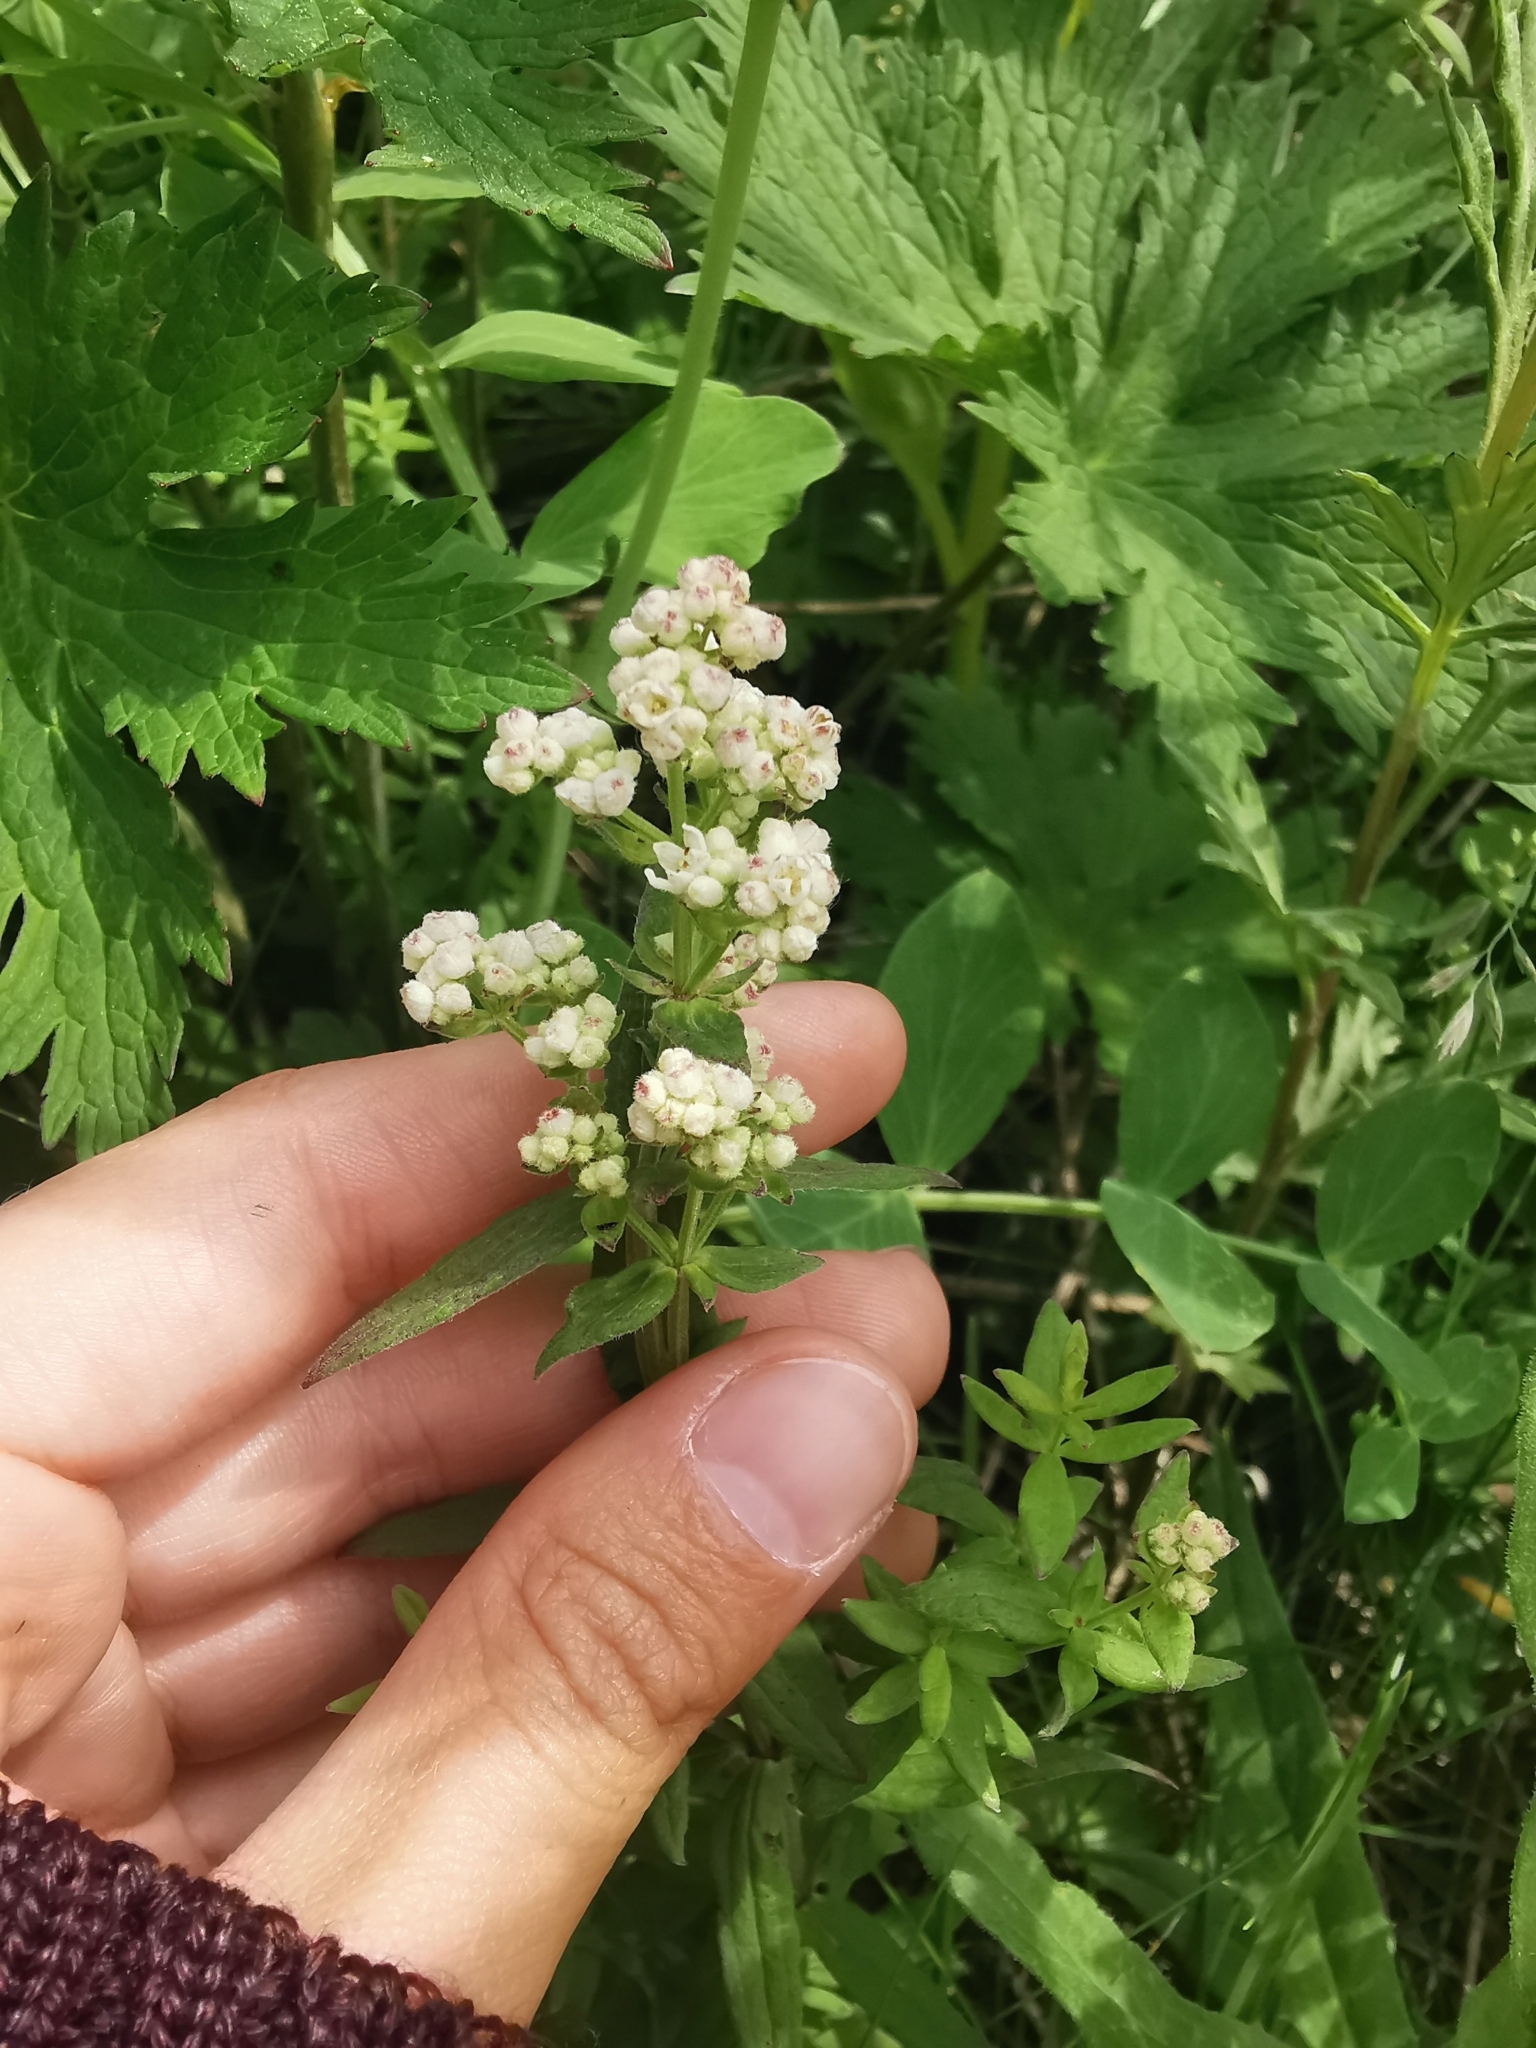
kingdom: Plantae
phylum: Tracheophyta
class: Magnoliopsida
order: Gentianales
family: Rubiaceae
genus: Galium
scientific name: Galium boreale
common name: Northern bedstraw
